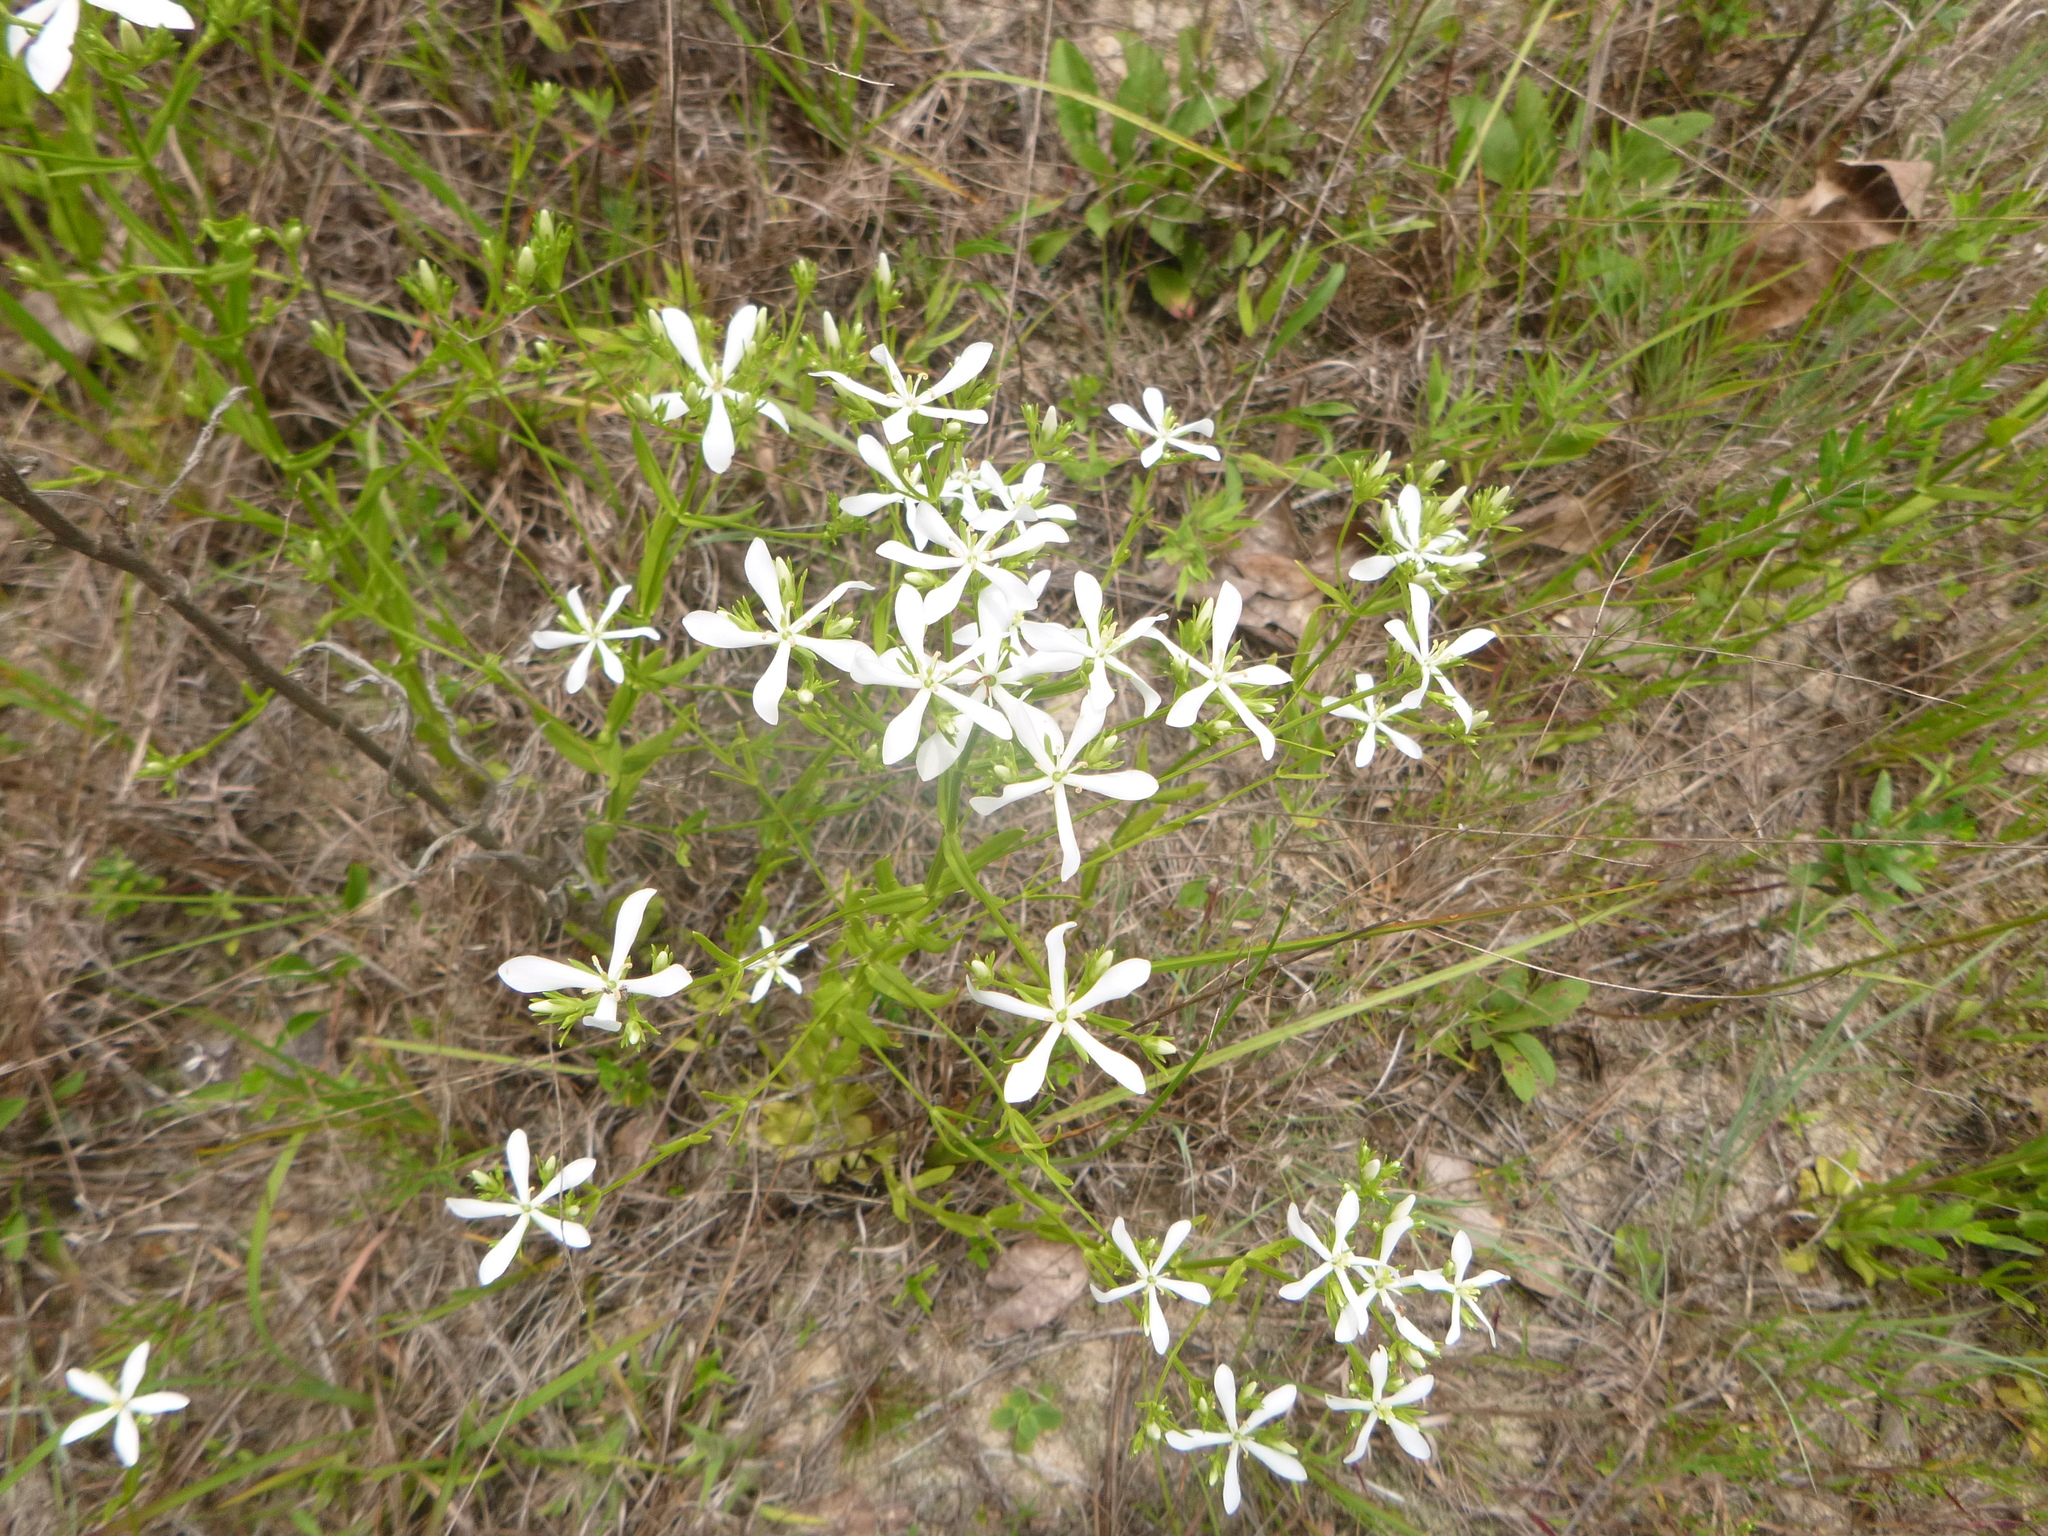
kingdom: Plantae
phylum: Tracheophyta
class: Magnoliopsida
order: Gentianales
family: Gentianaceae
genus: Sabatia
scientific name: Sabatia quadrangula
